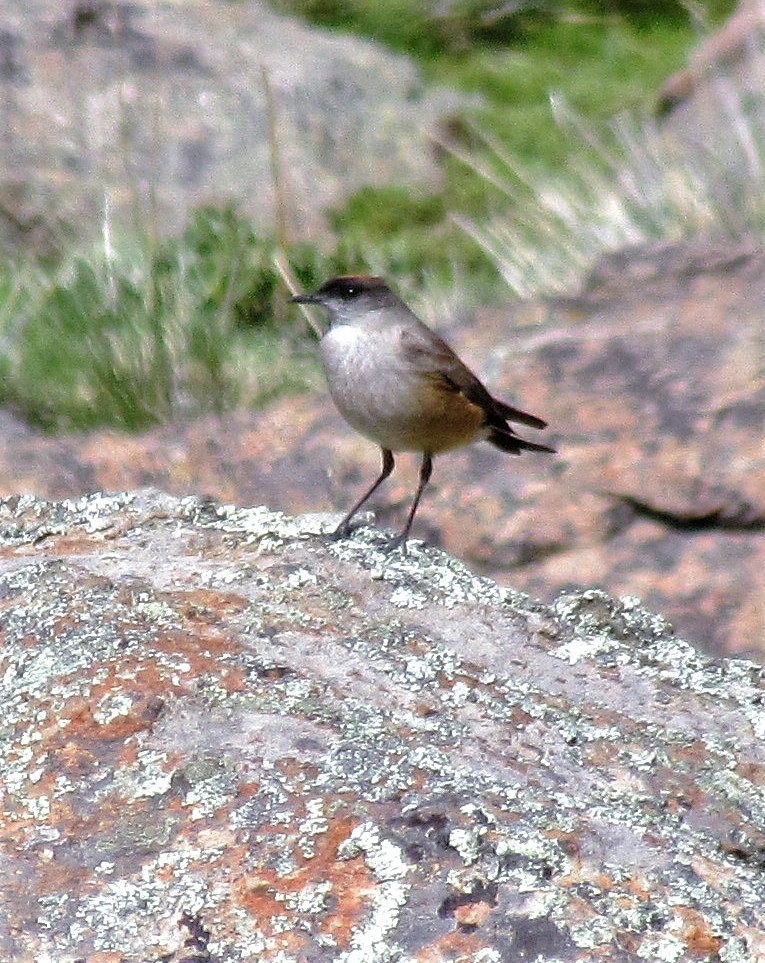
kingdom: Animalia
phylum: Chordata
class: Aves
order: Passeriformes
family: Tyrannidae
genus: Muscisaxicola
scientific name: Muscisaxicola capistratus
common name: Cinnamon-bellied ground tyrant
